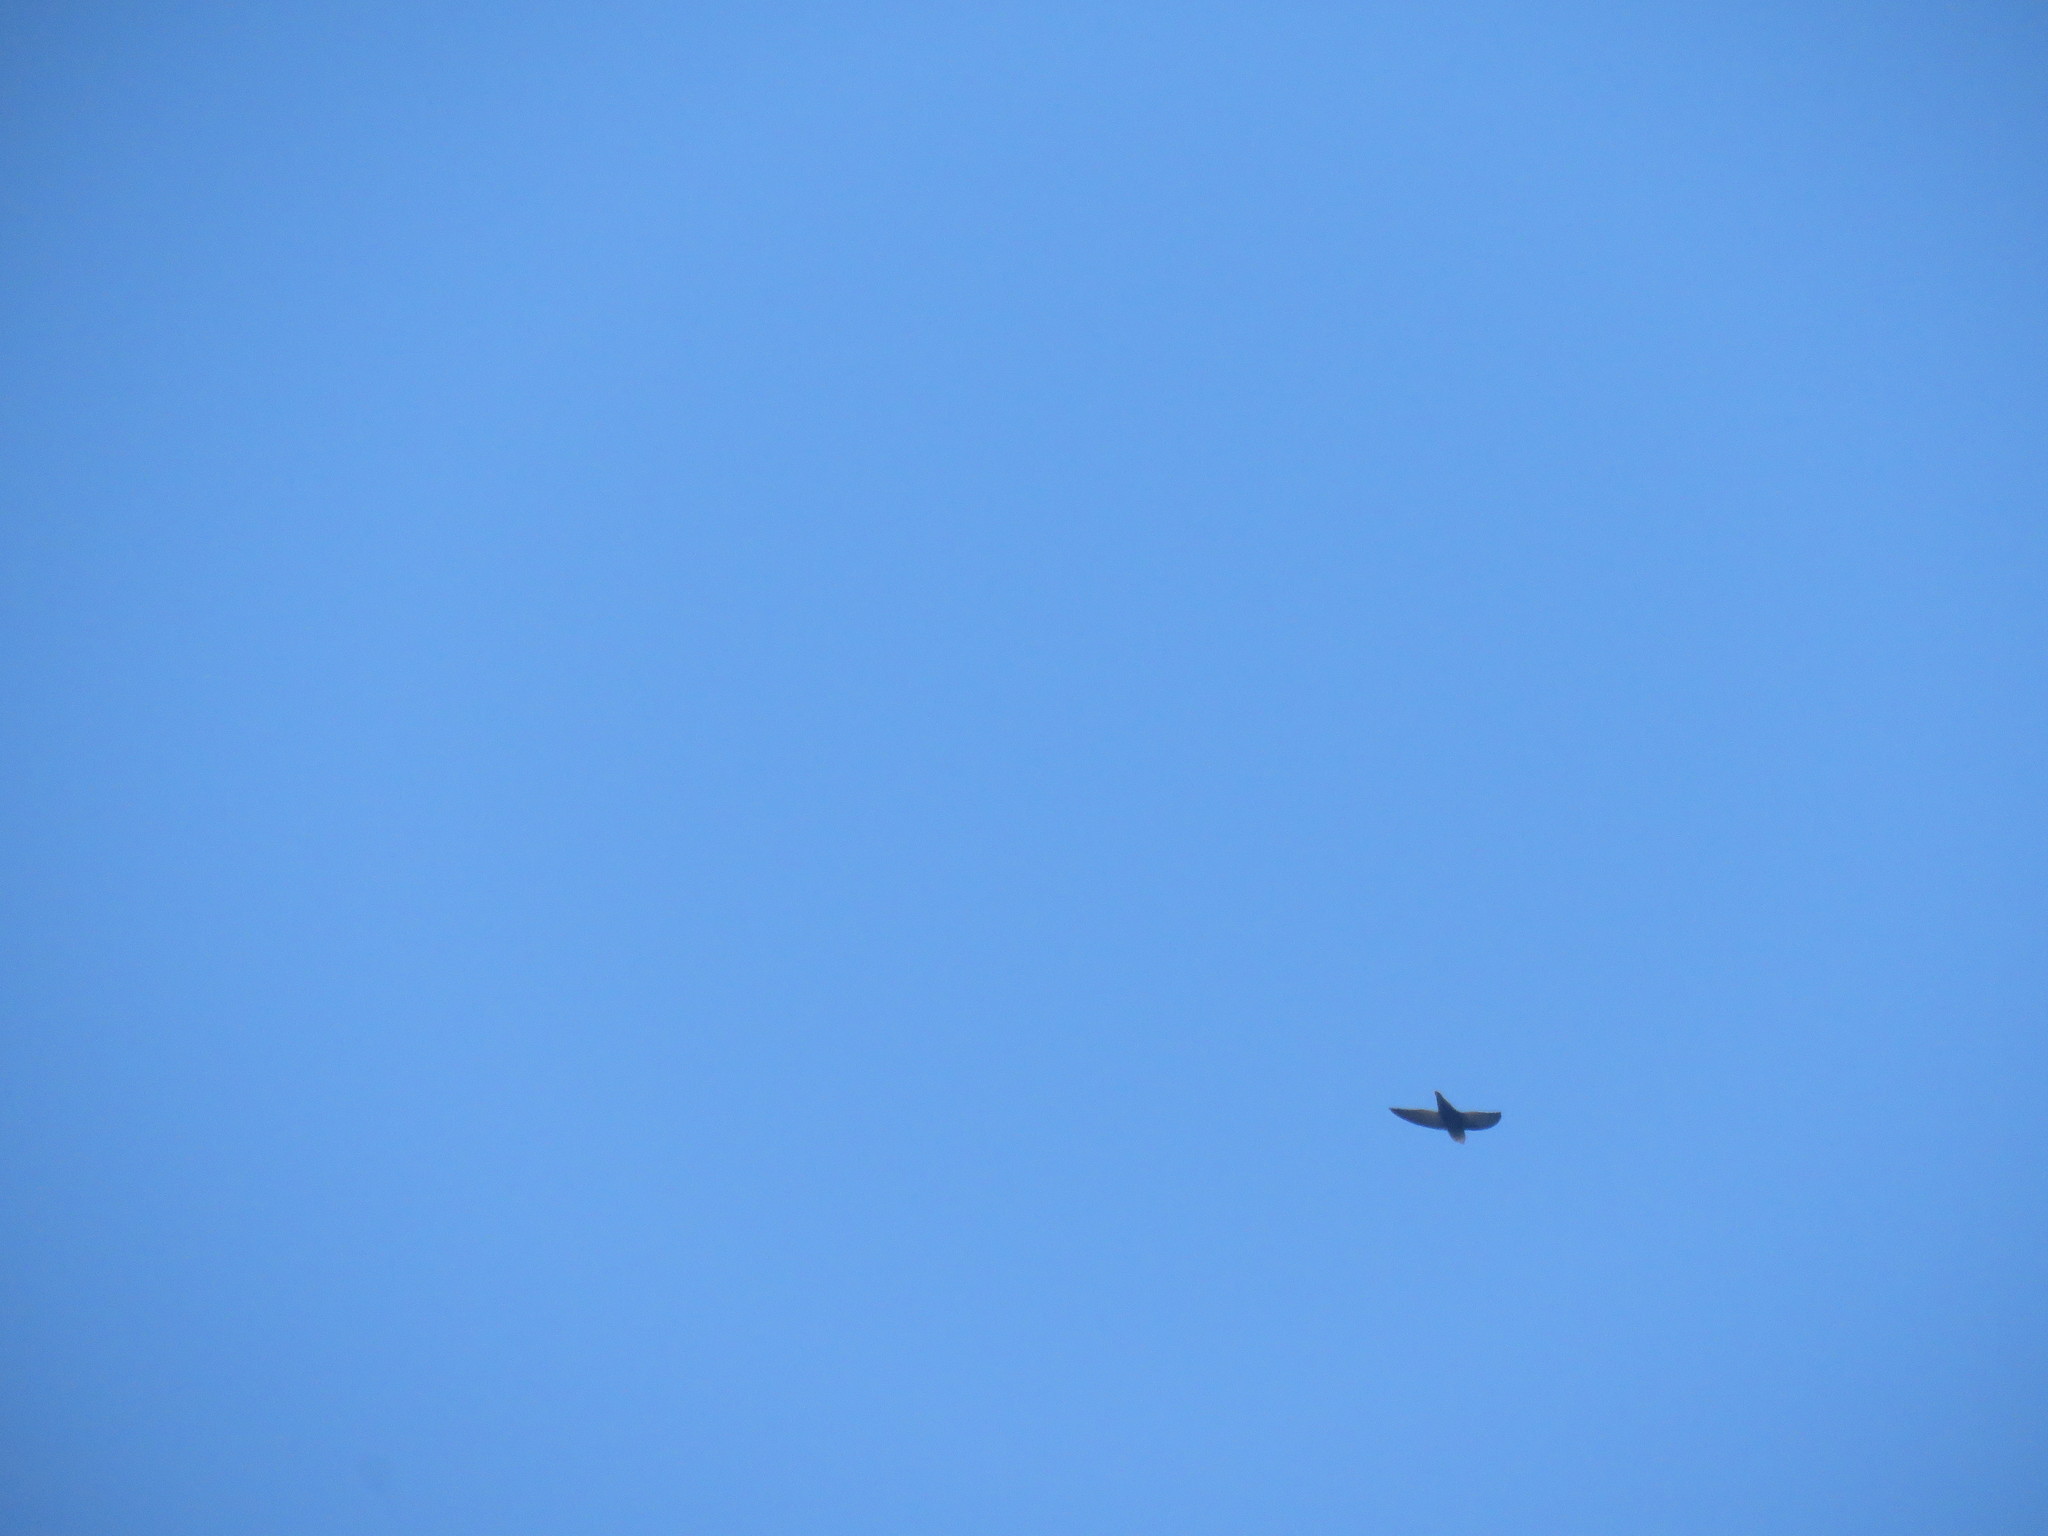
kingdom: Animalia
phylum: Chordata
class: Aves
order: Apodiformes
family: Apodidae
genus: Chaetura
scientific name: Chaetura meridionalis
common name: Sick's swift
